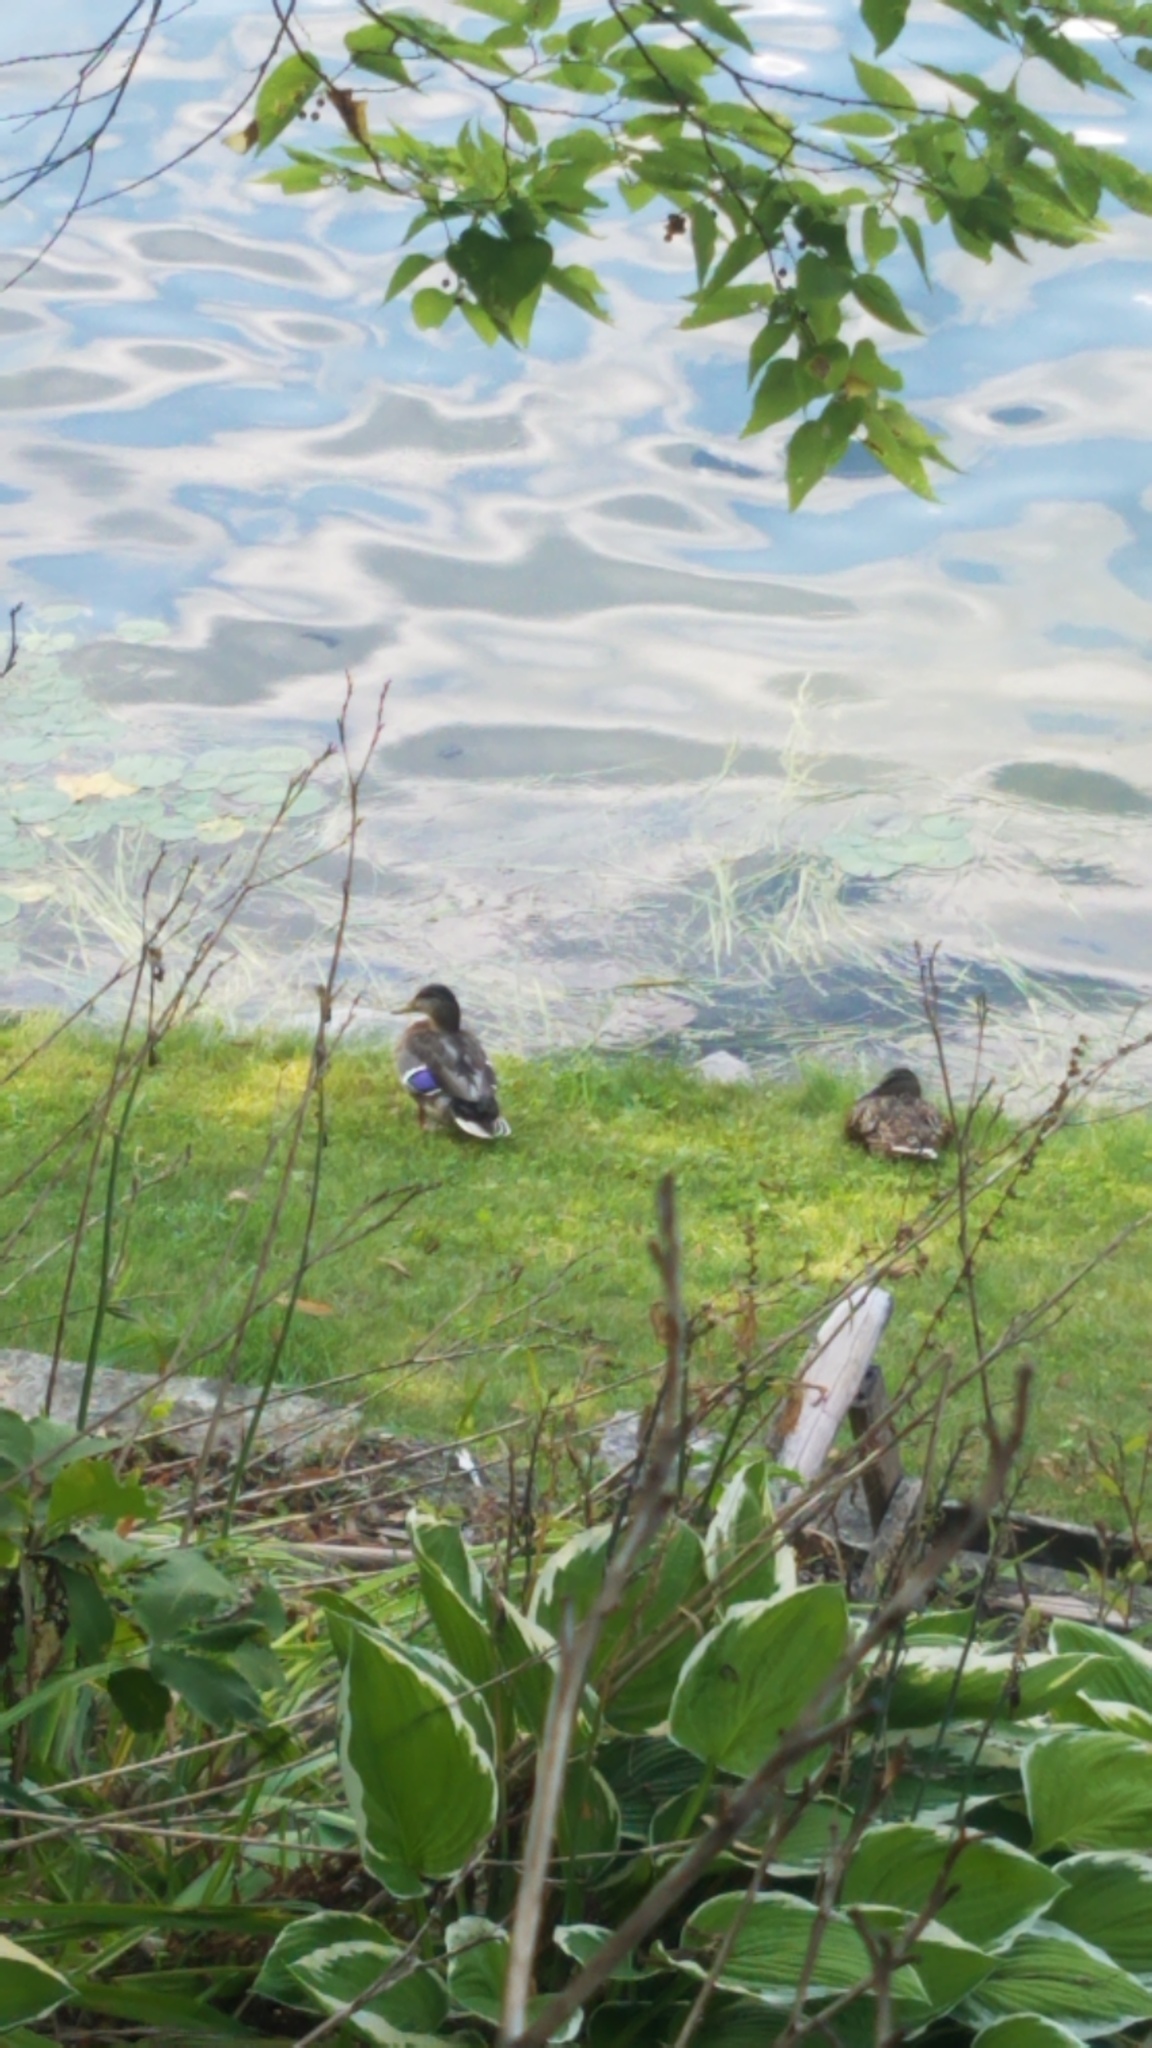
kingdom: Animalia
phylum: Chordata
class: Aves
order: Anseriformes
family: Anatidae
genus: Anas
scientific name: Anas platyrhynchos
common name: Mallard
